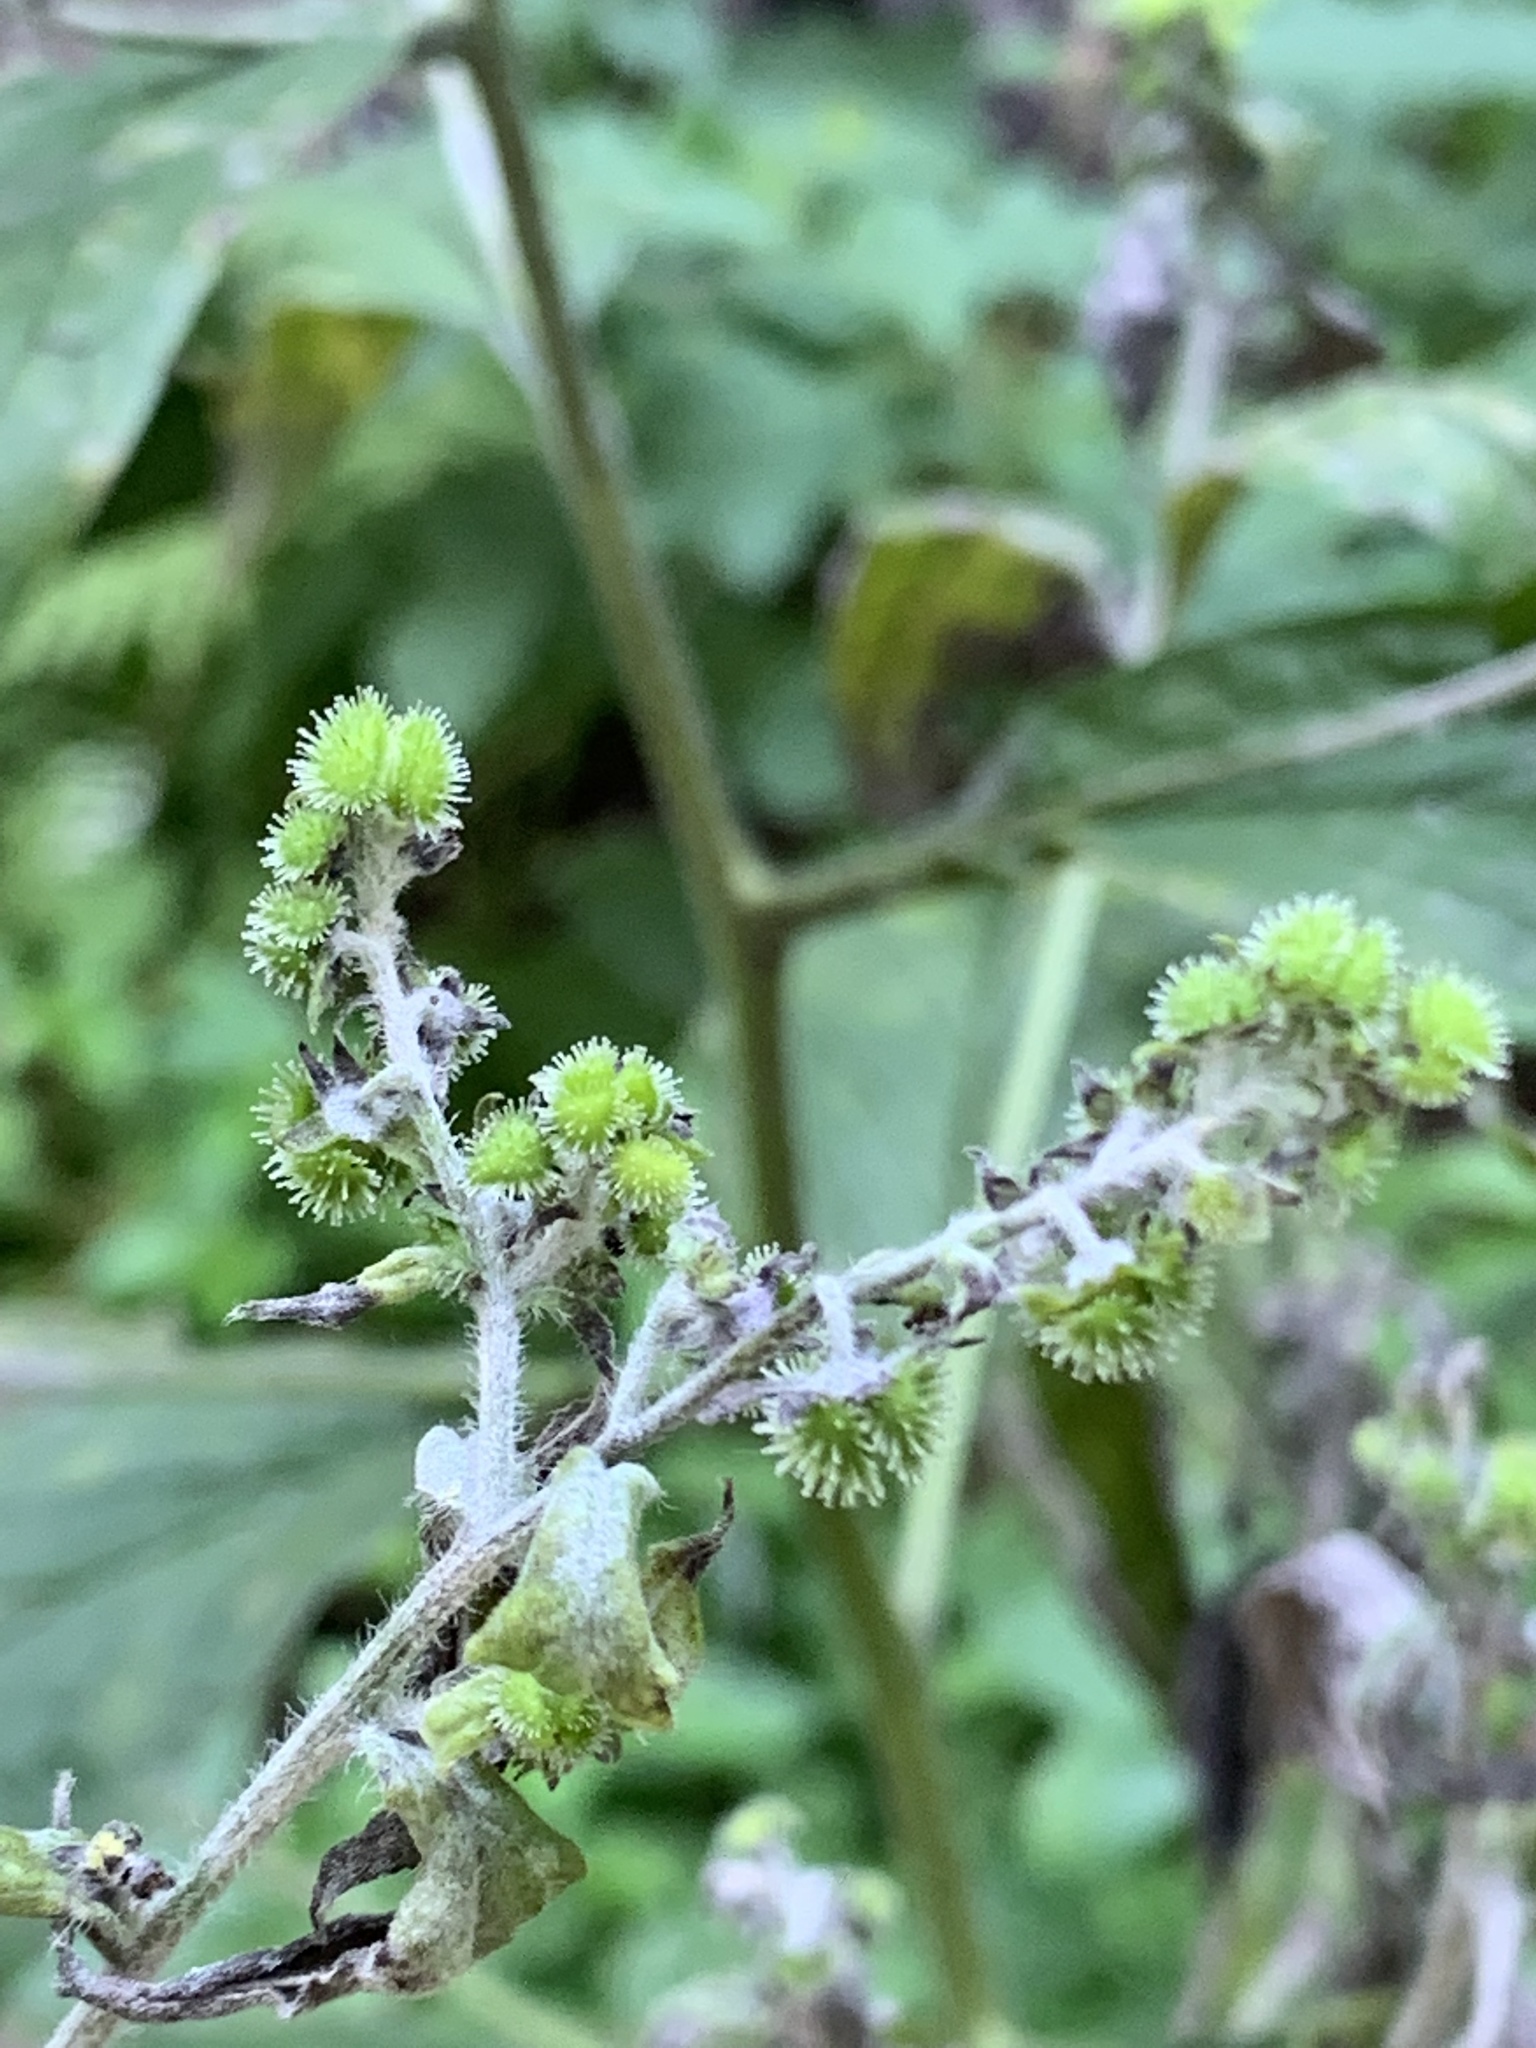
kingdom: Plantae
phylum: Tracheophyta
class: Magnoliopsida
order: Boraginales
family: Boraginaceae
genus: Hackelia
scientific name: Hackelia virginiana
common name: Beggar's-lice
